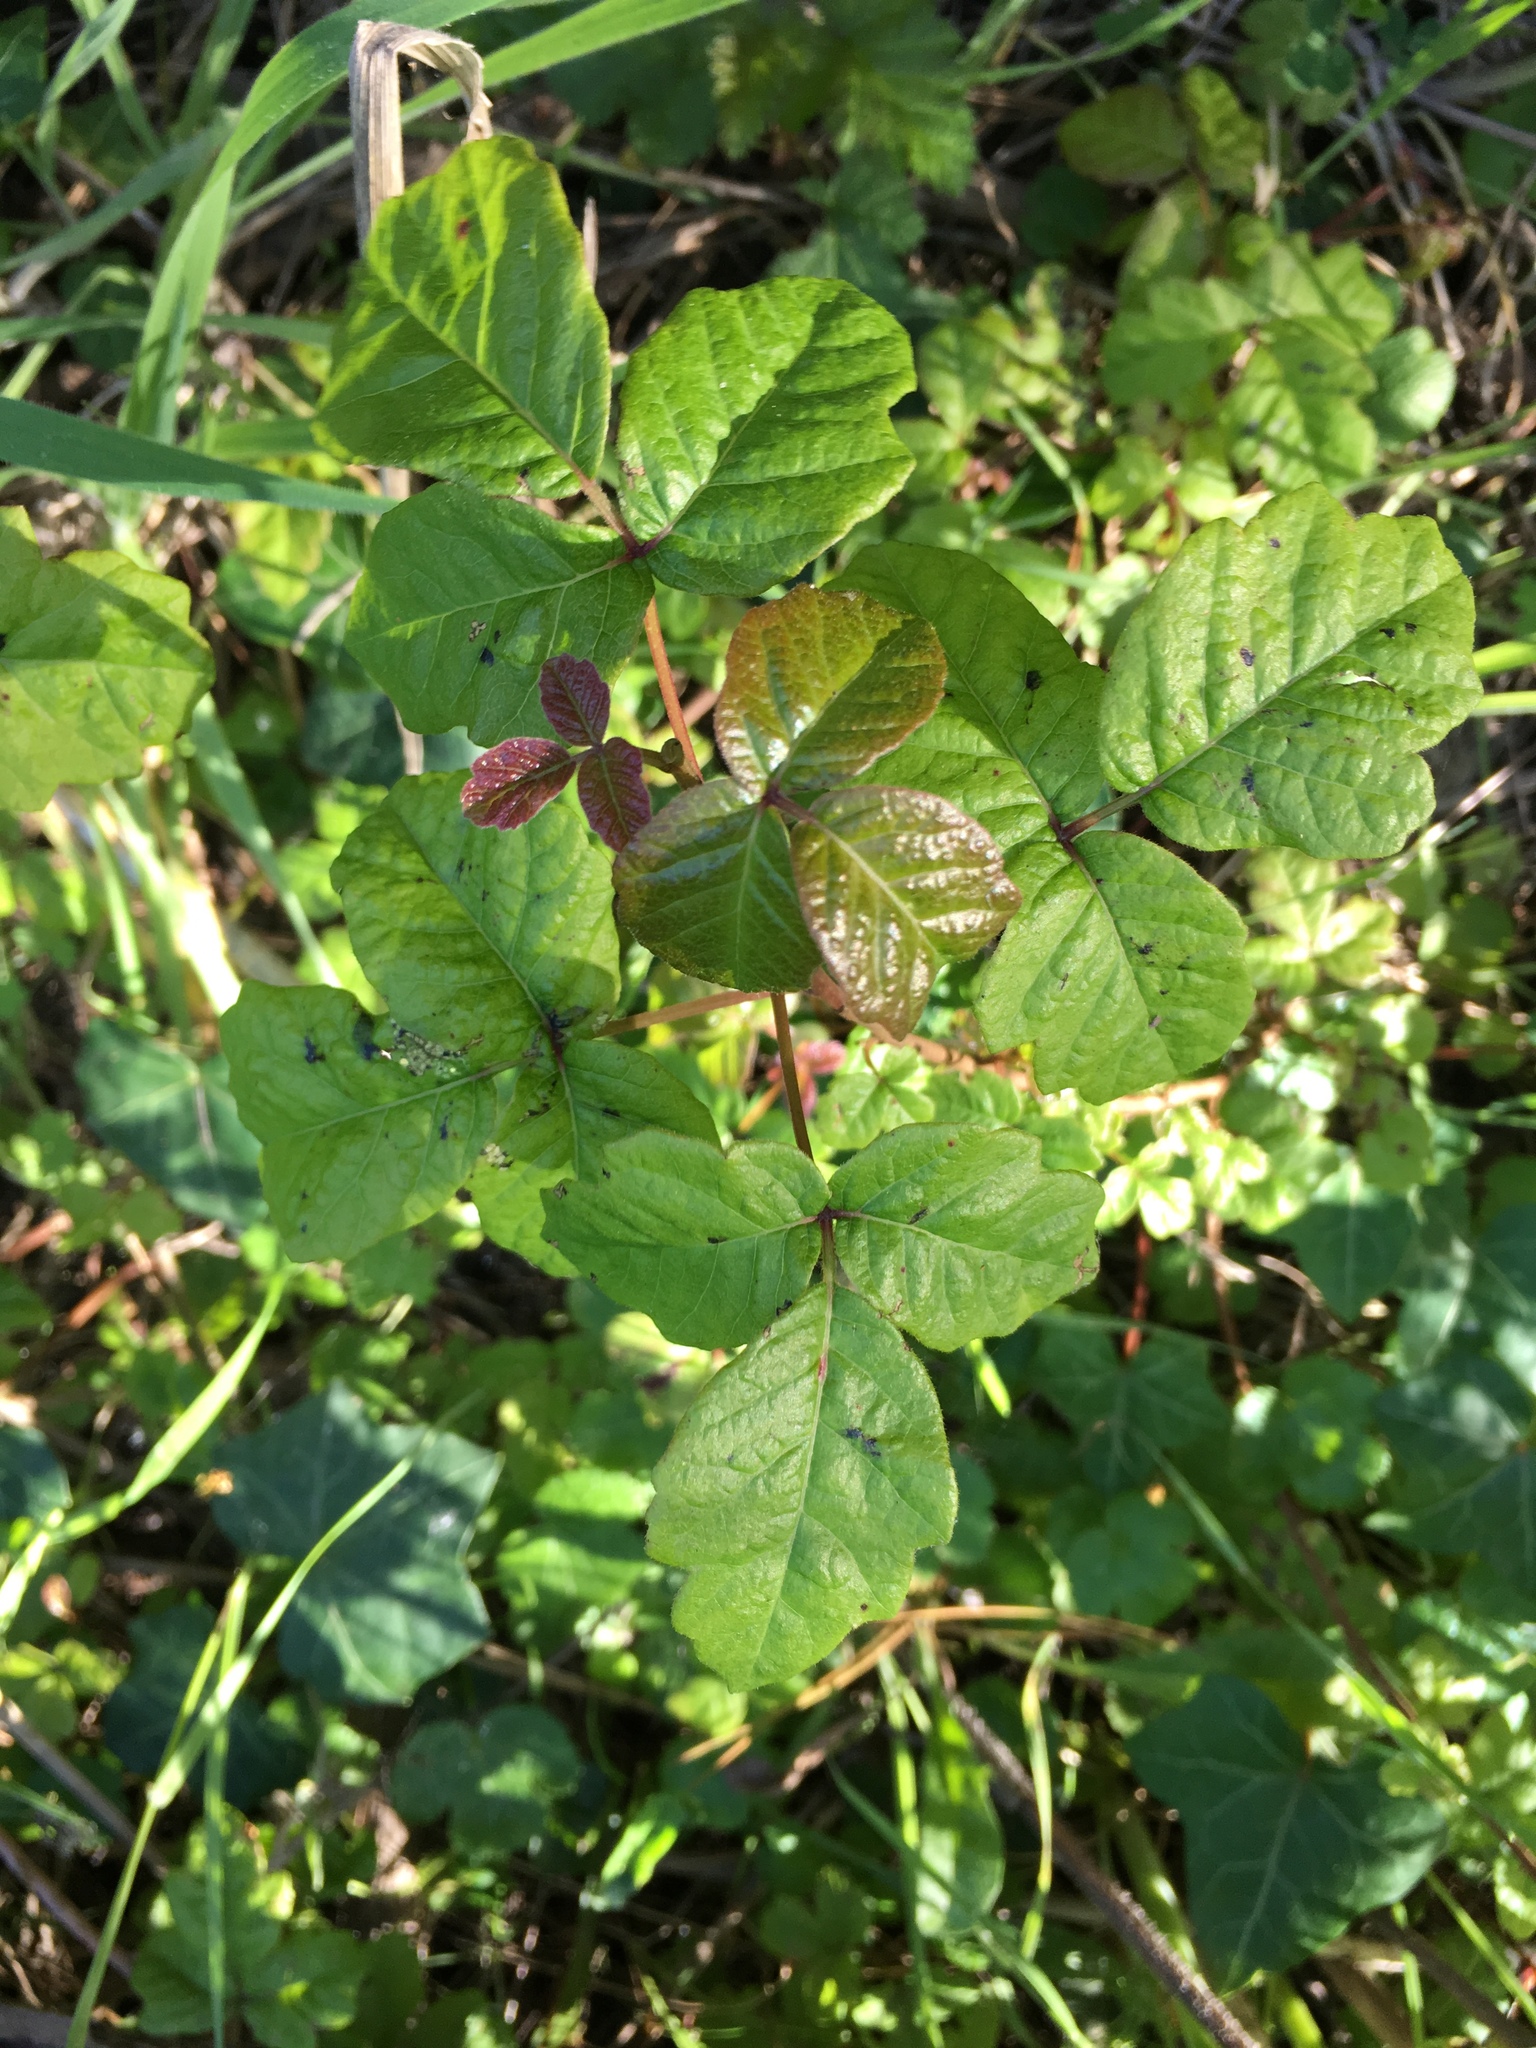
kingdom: Plantae
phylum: Tracheophyta
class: Magnoliopsida
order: Sapindales
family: Anacardiaceae
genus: Toxicodendron
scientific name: Toxicodendron diversilobum
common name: Pacific poison-oak
